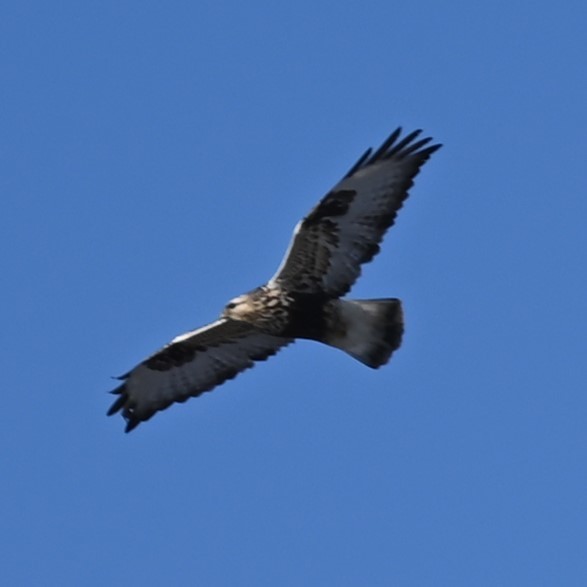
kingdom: Animalia
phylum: Chordata
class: Aves
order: Accipitriformes
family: Accipitridae
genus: Buteo
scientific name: Buteo lagopus
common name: Rough-legged buzzard
